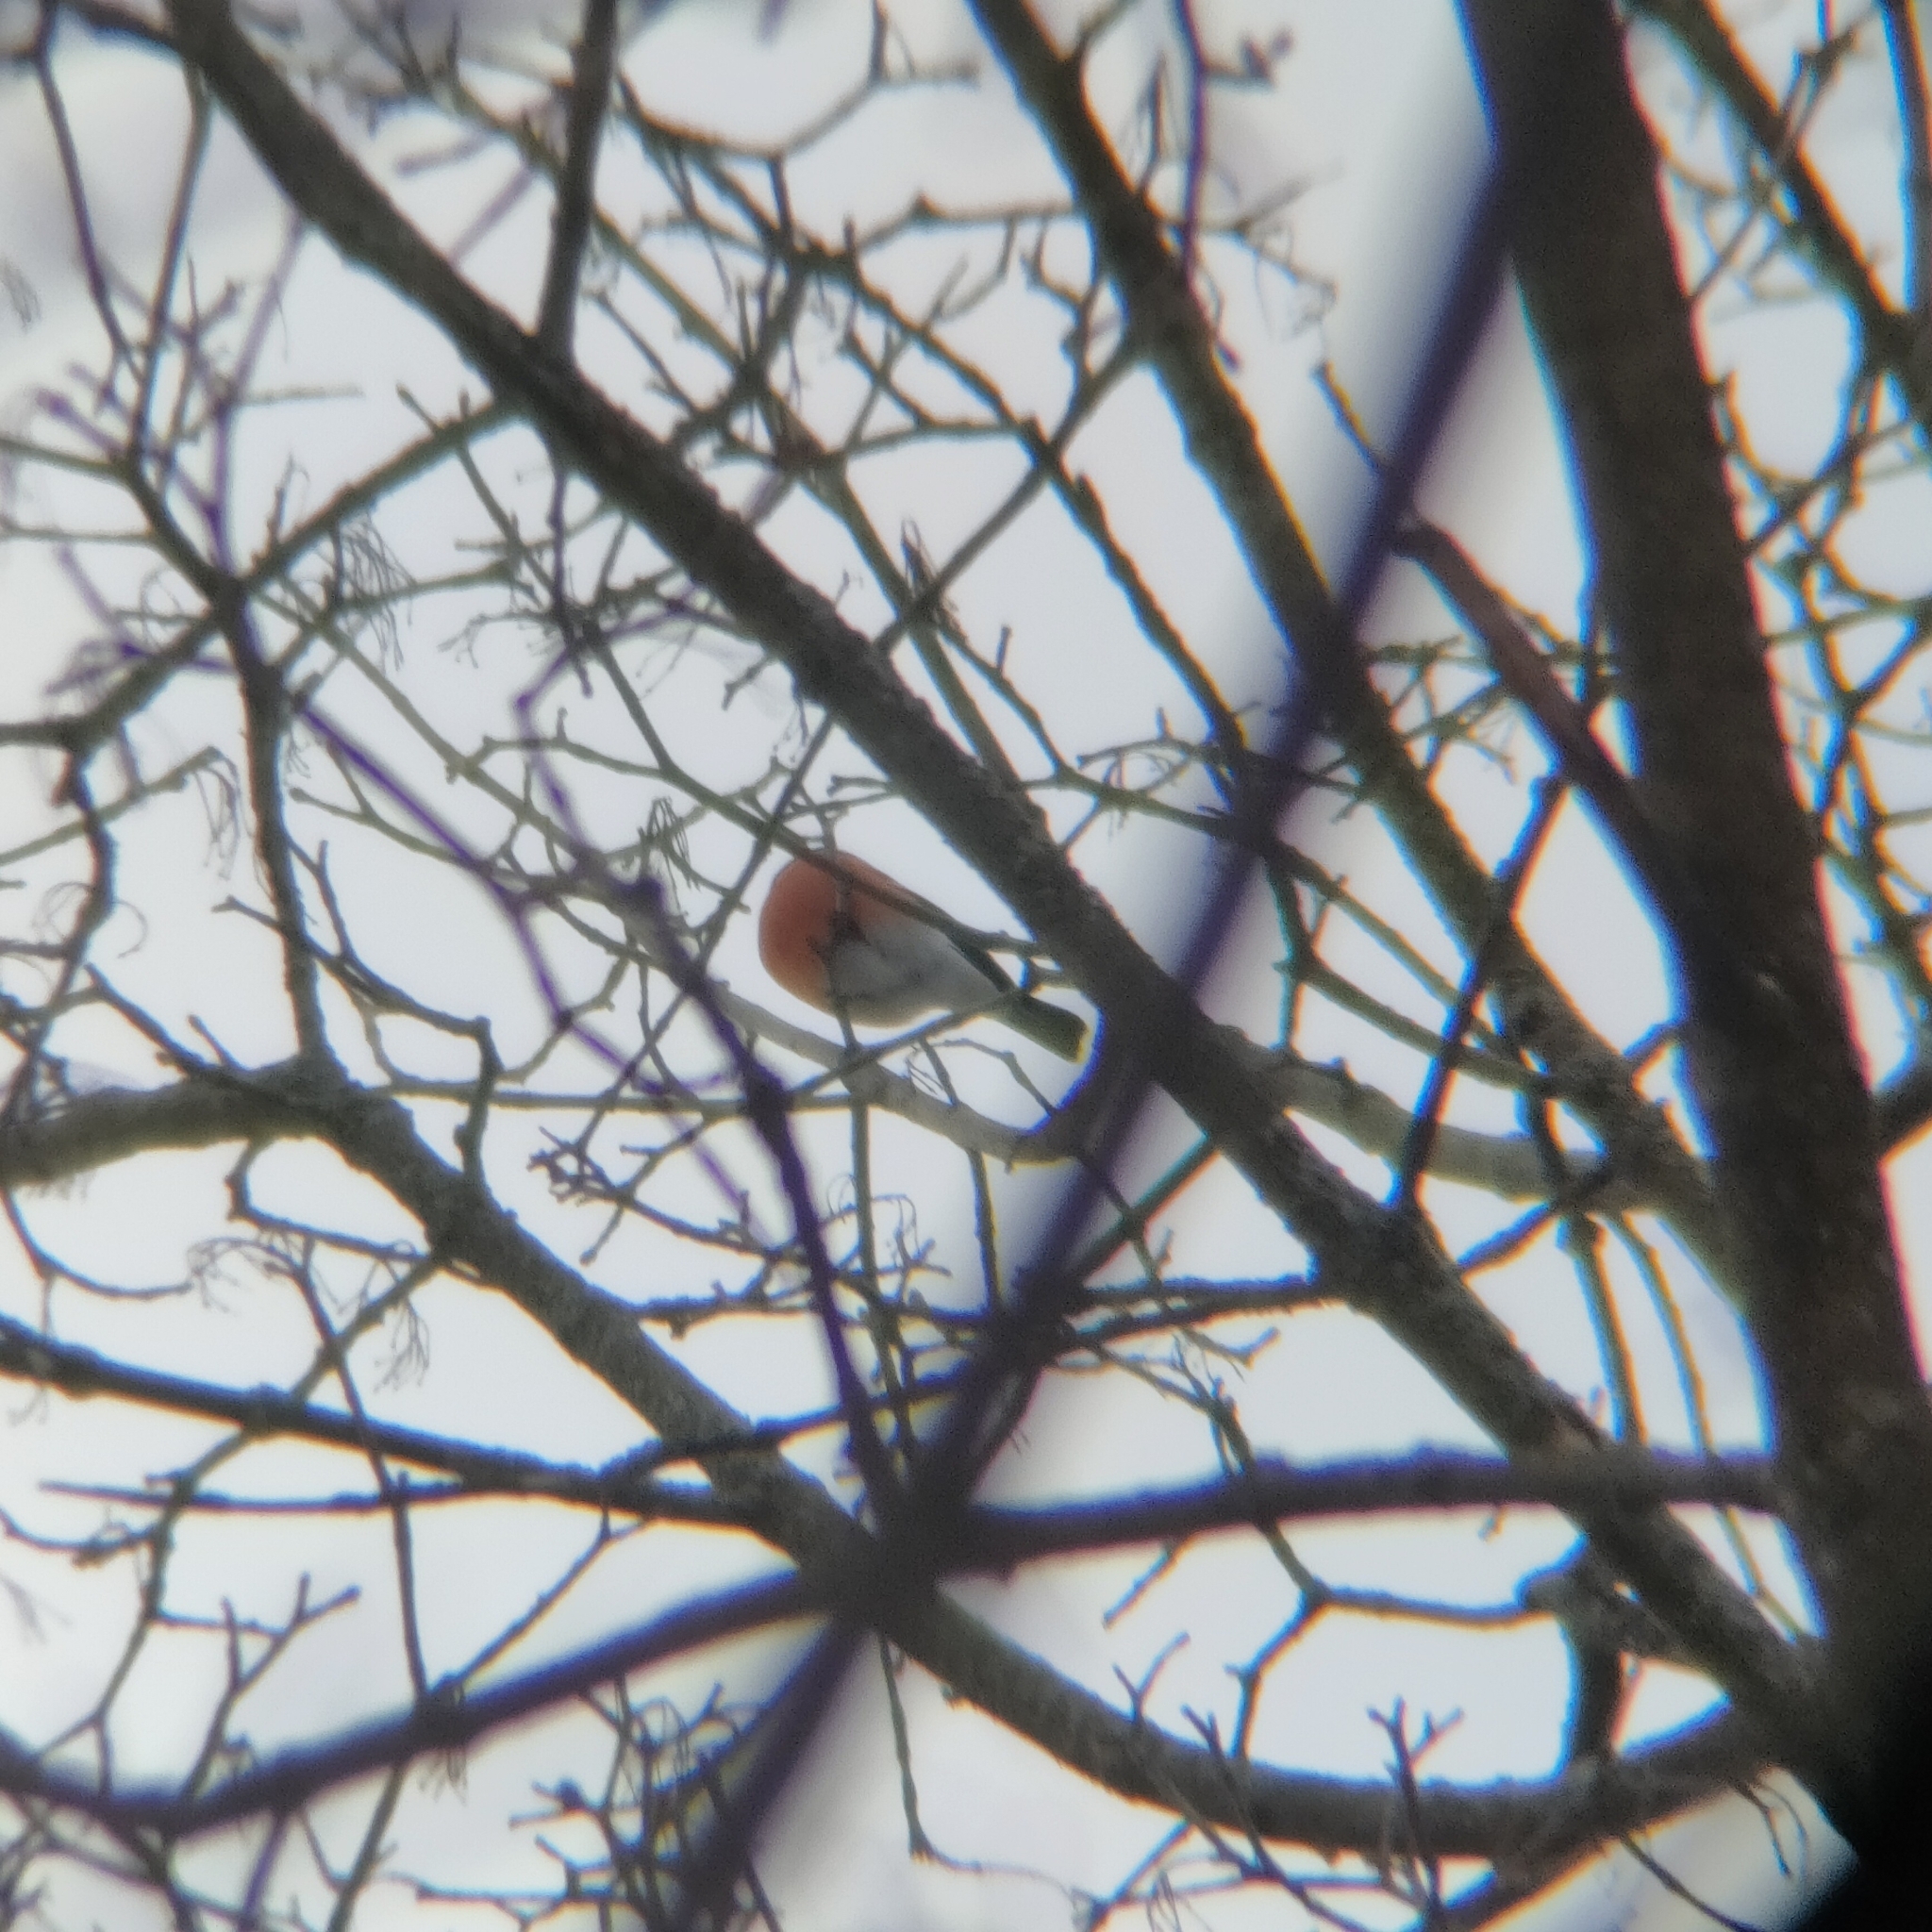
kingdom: Animalia
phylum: Chordata
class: Aves
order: Passeriformes
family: Fringillidae
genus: Pyrrhula
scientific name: Pyrrhula pyrrhula
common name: Eurasian bullfinch
